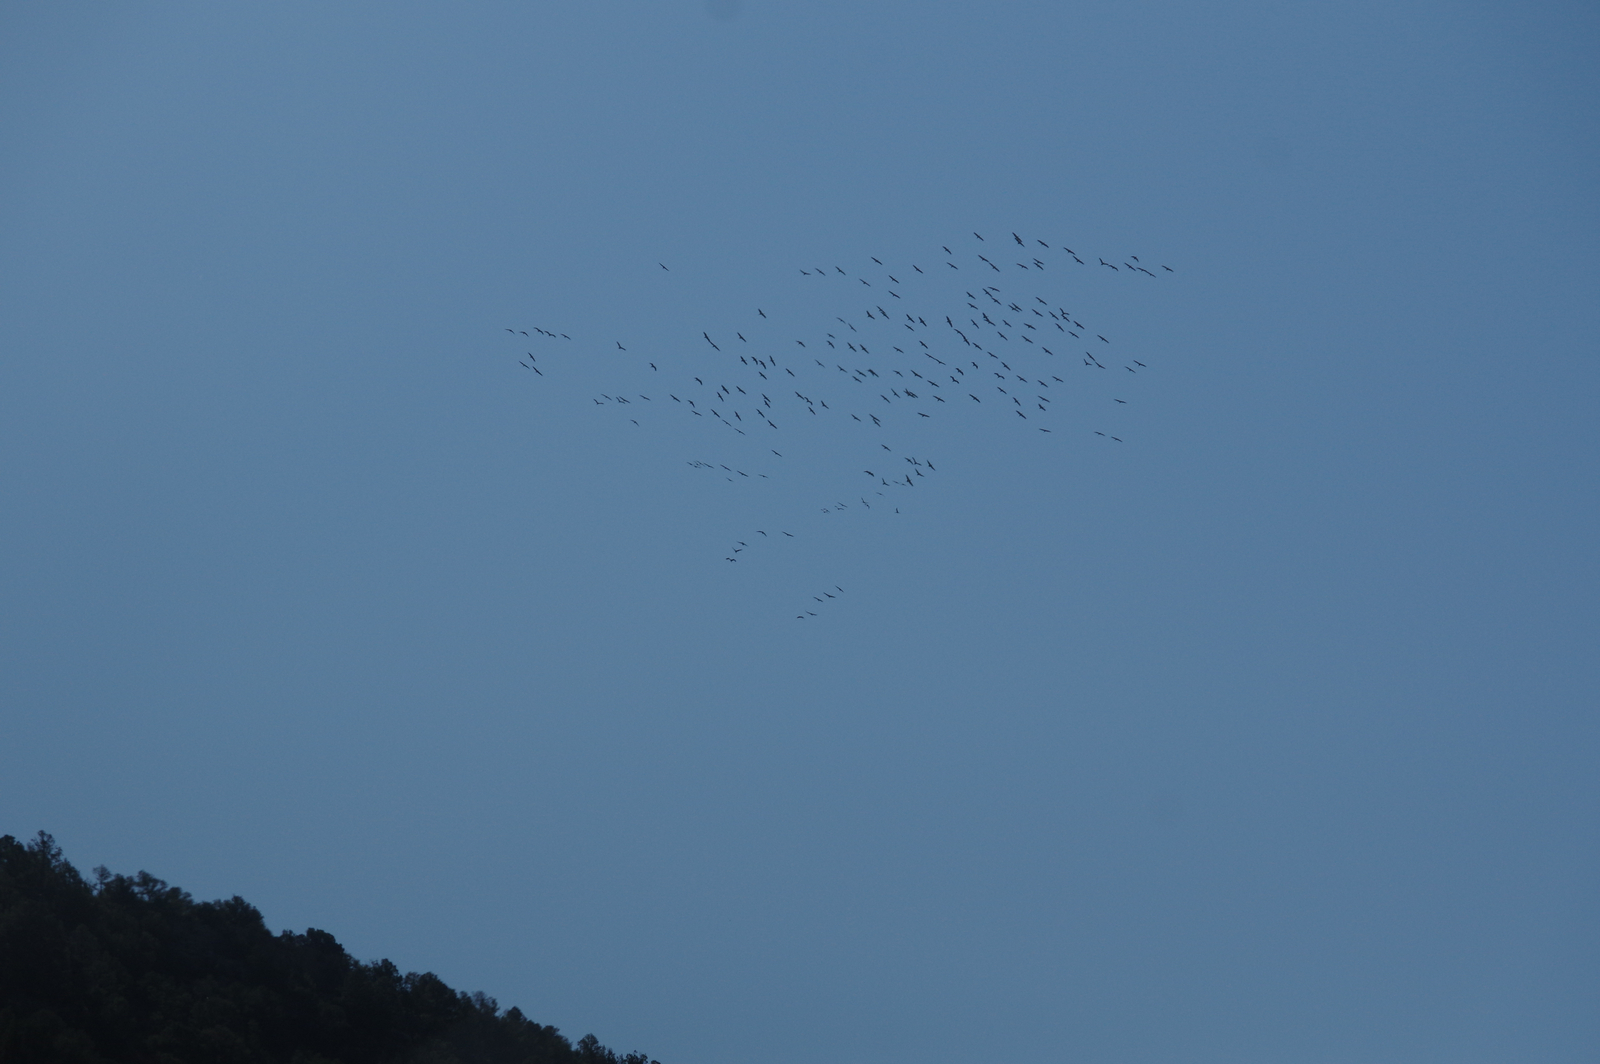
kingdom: Animalia
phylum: Chordata
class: Aves
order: Gruiformes
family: Gruidae
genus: Grus
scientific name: Grus canadensis
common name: Sandhill crane
